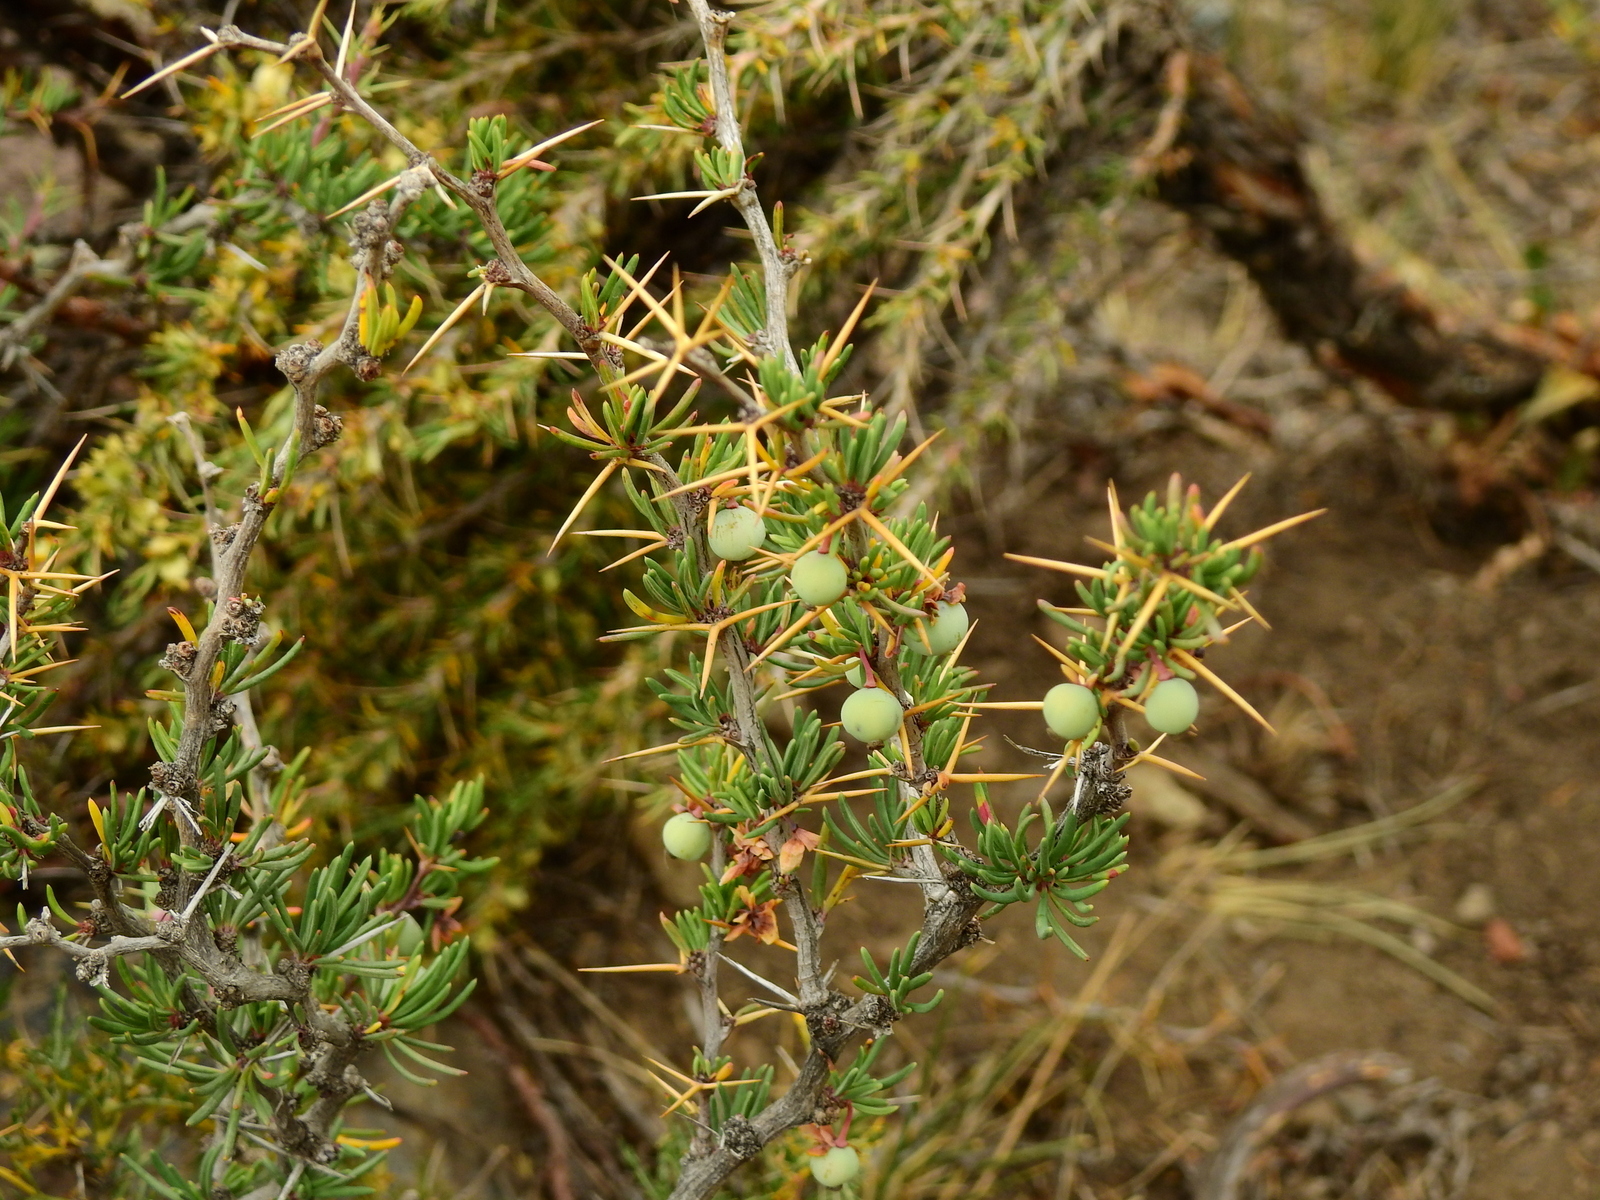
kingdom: Plantae
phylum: Tracheophyta
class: Magnoliopsida
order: Ranunculales
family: Berberidaceae
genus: Berberis
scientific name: Berberis empetrifolia
